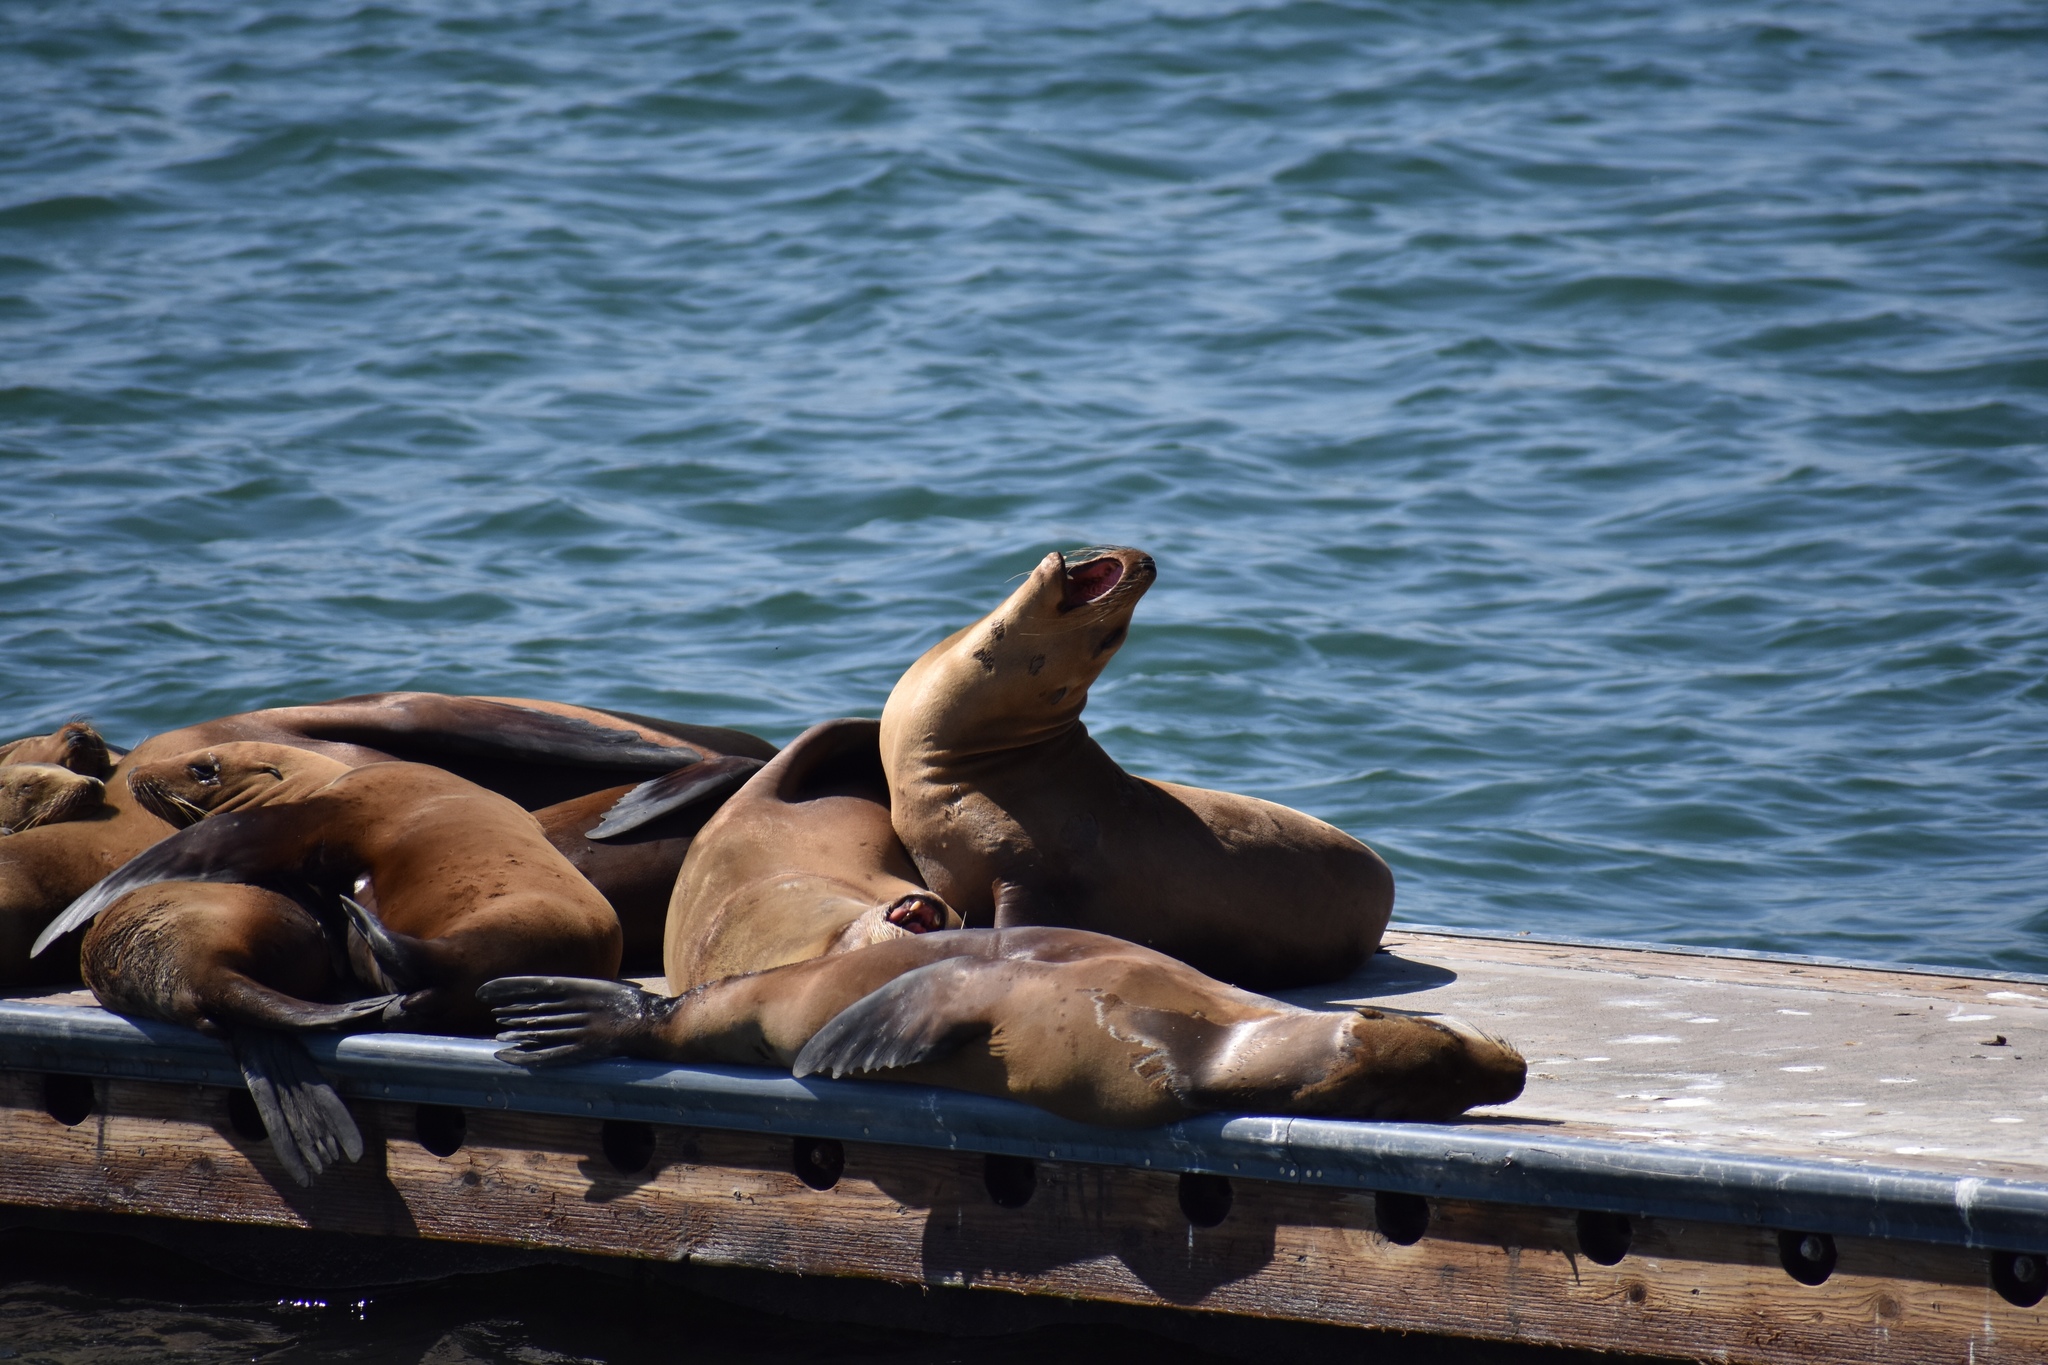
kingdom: Animalia
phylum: Chordata
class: Mammalia
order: Carnivora
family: Otariidae
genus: Zalophus
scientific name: Zalophus californianus
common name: California sea lion
